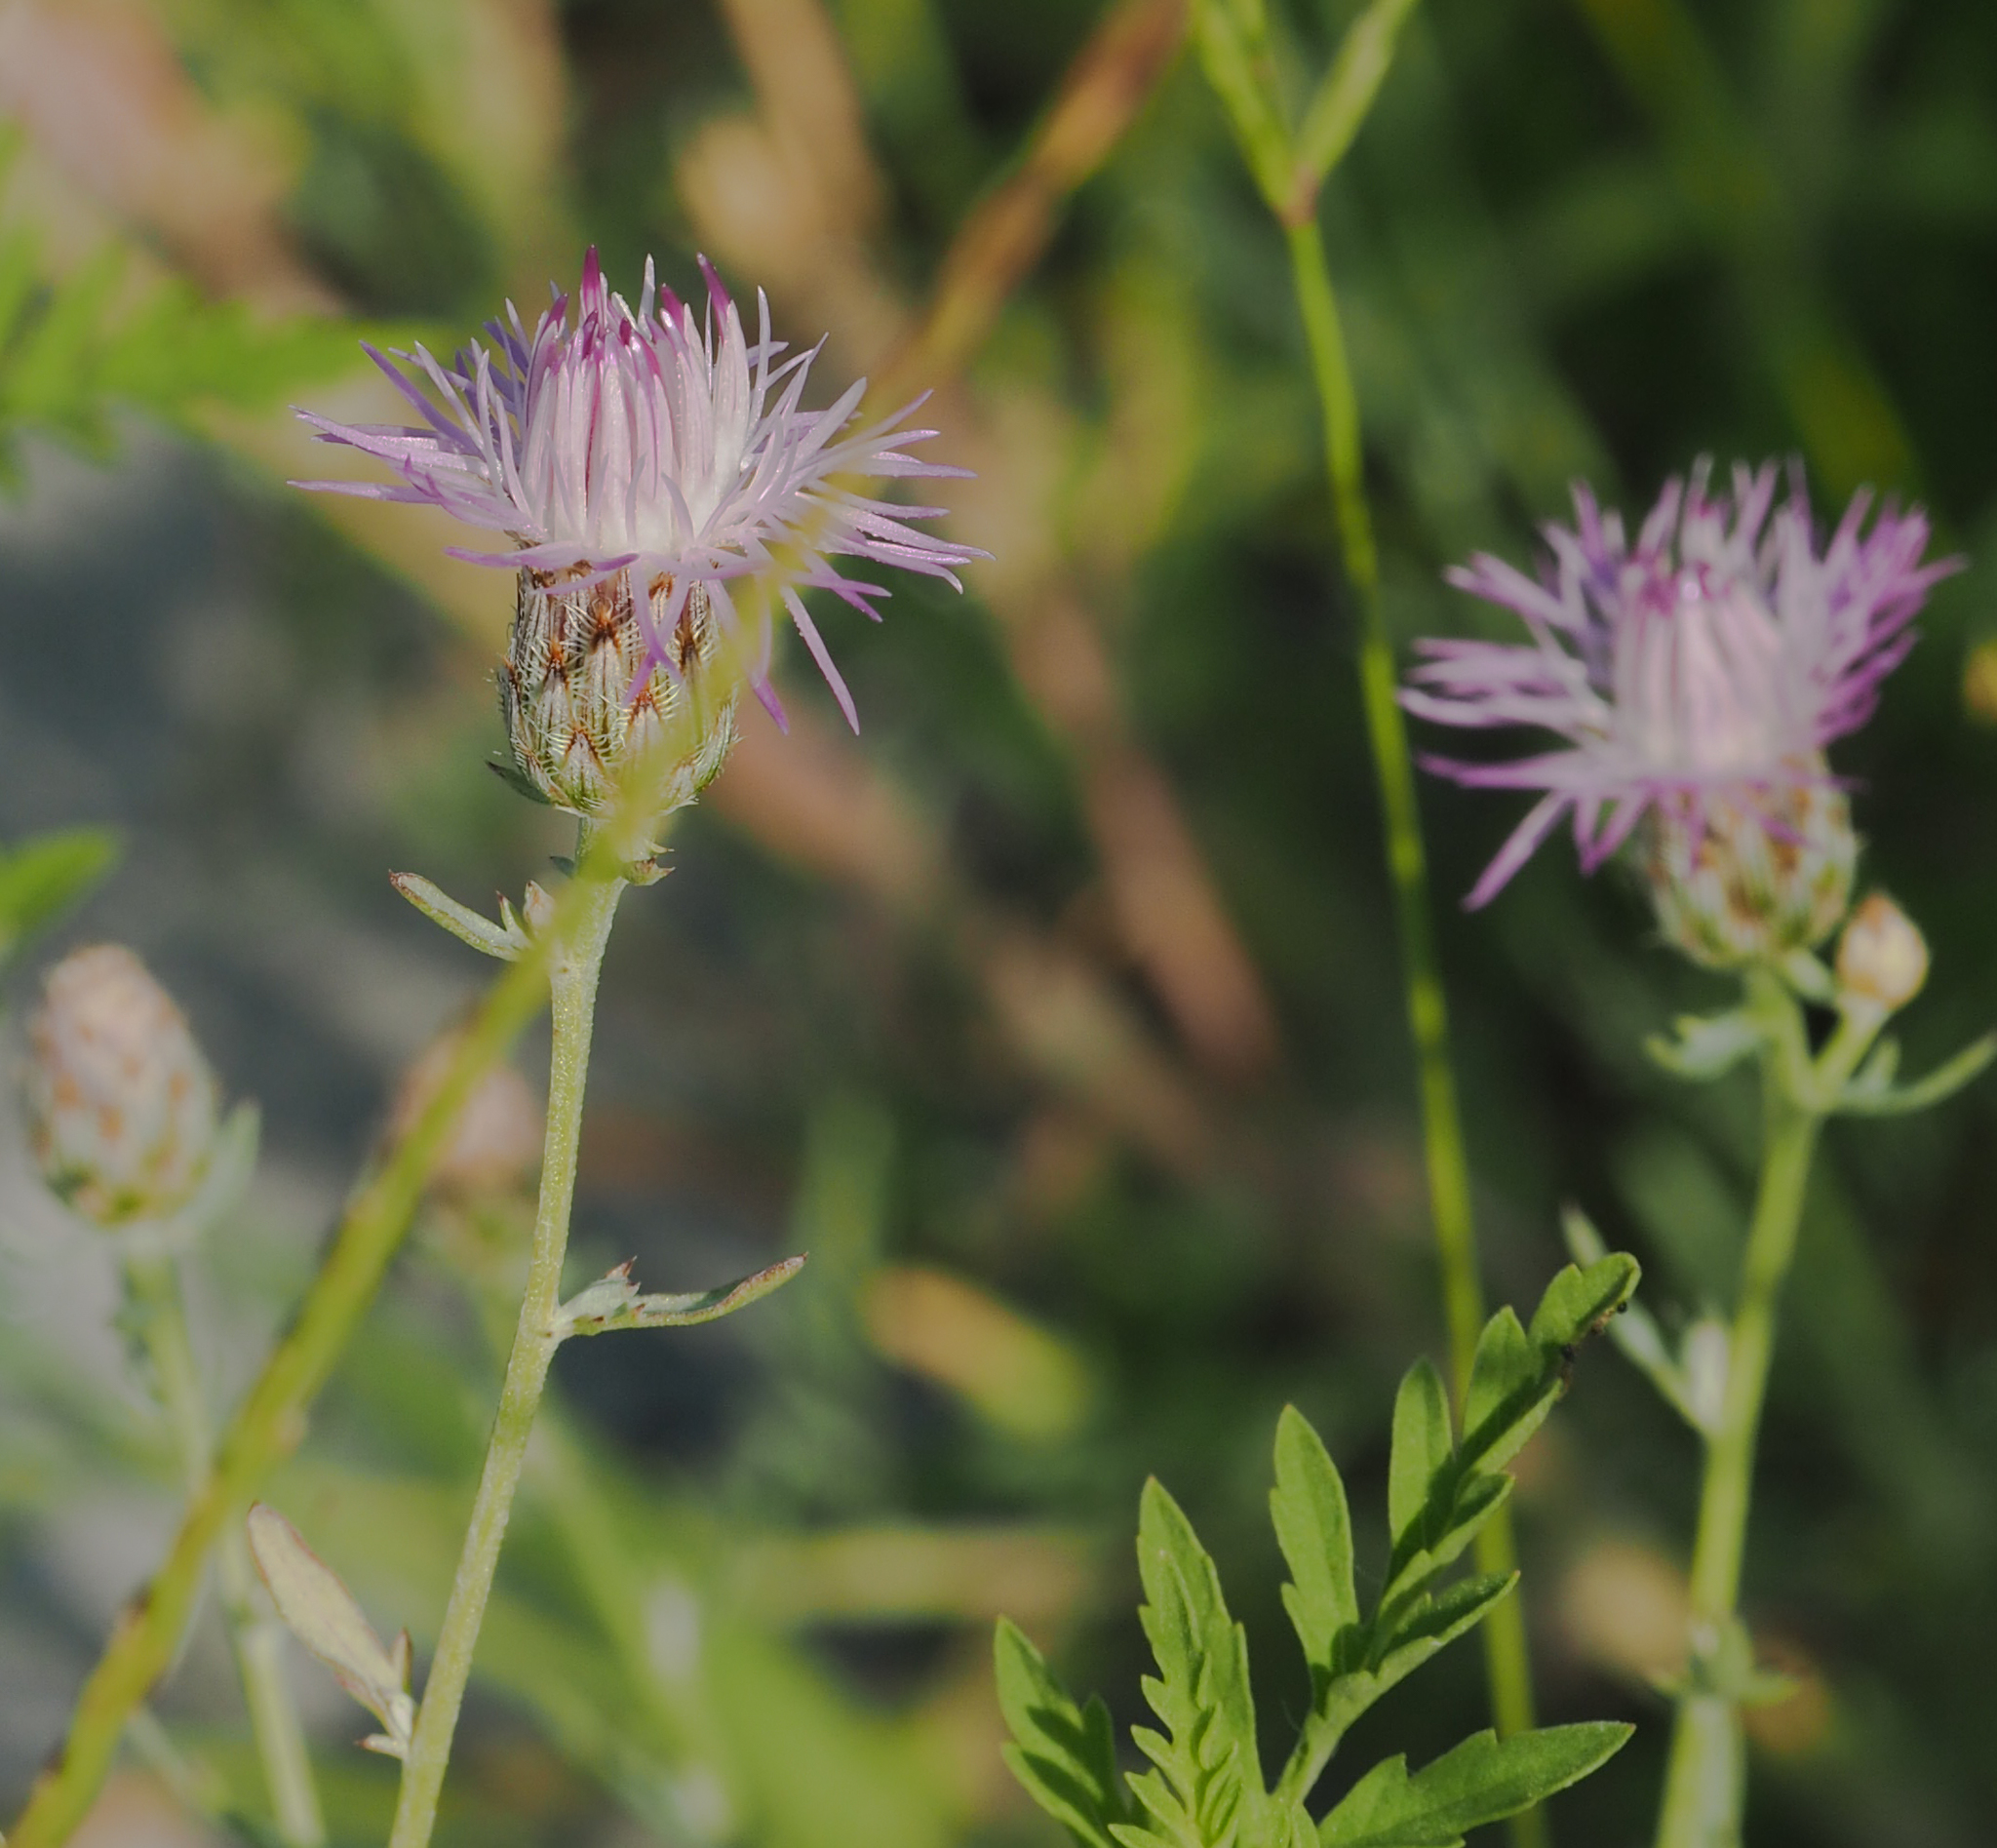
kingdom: Plantae
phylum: Tracheophyta
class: Magnoliopsida
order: Asterales
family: Asteraceae
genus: Centaurea
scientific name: Centaurea stoebe
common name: Spotted knapweed
